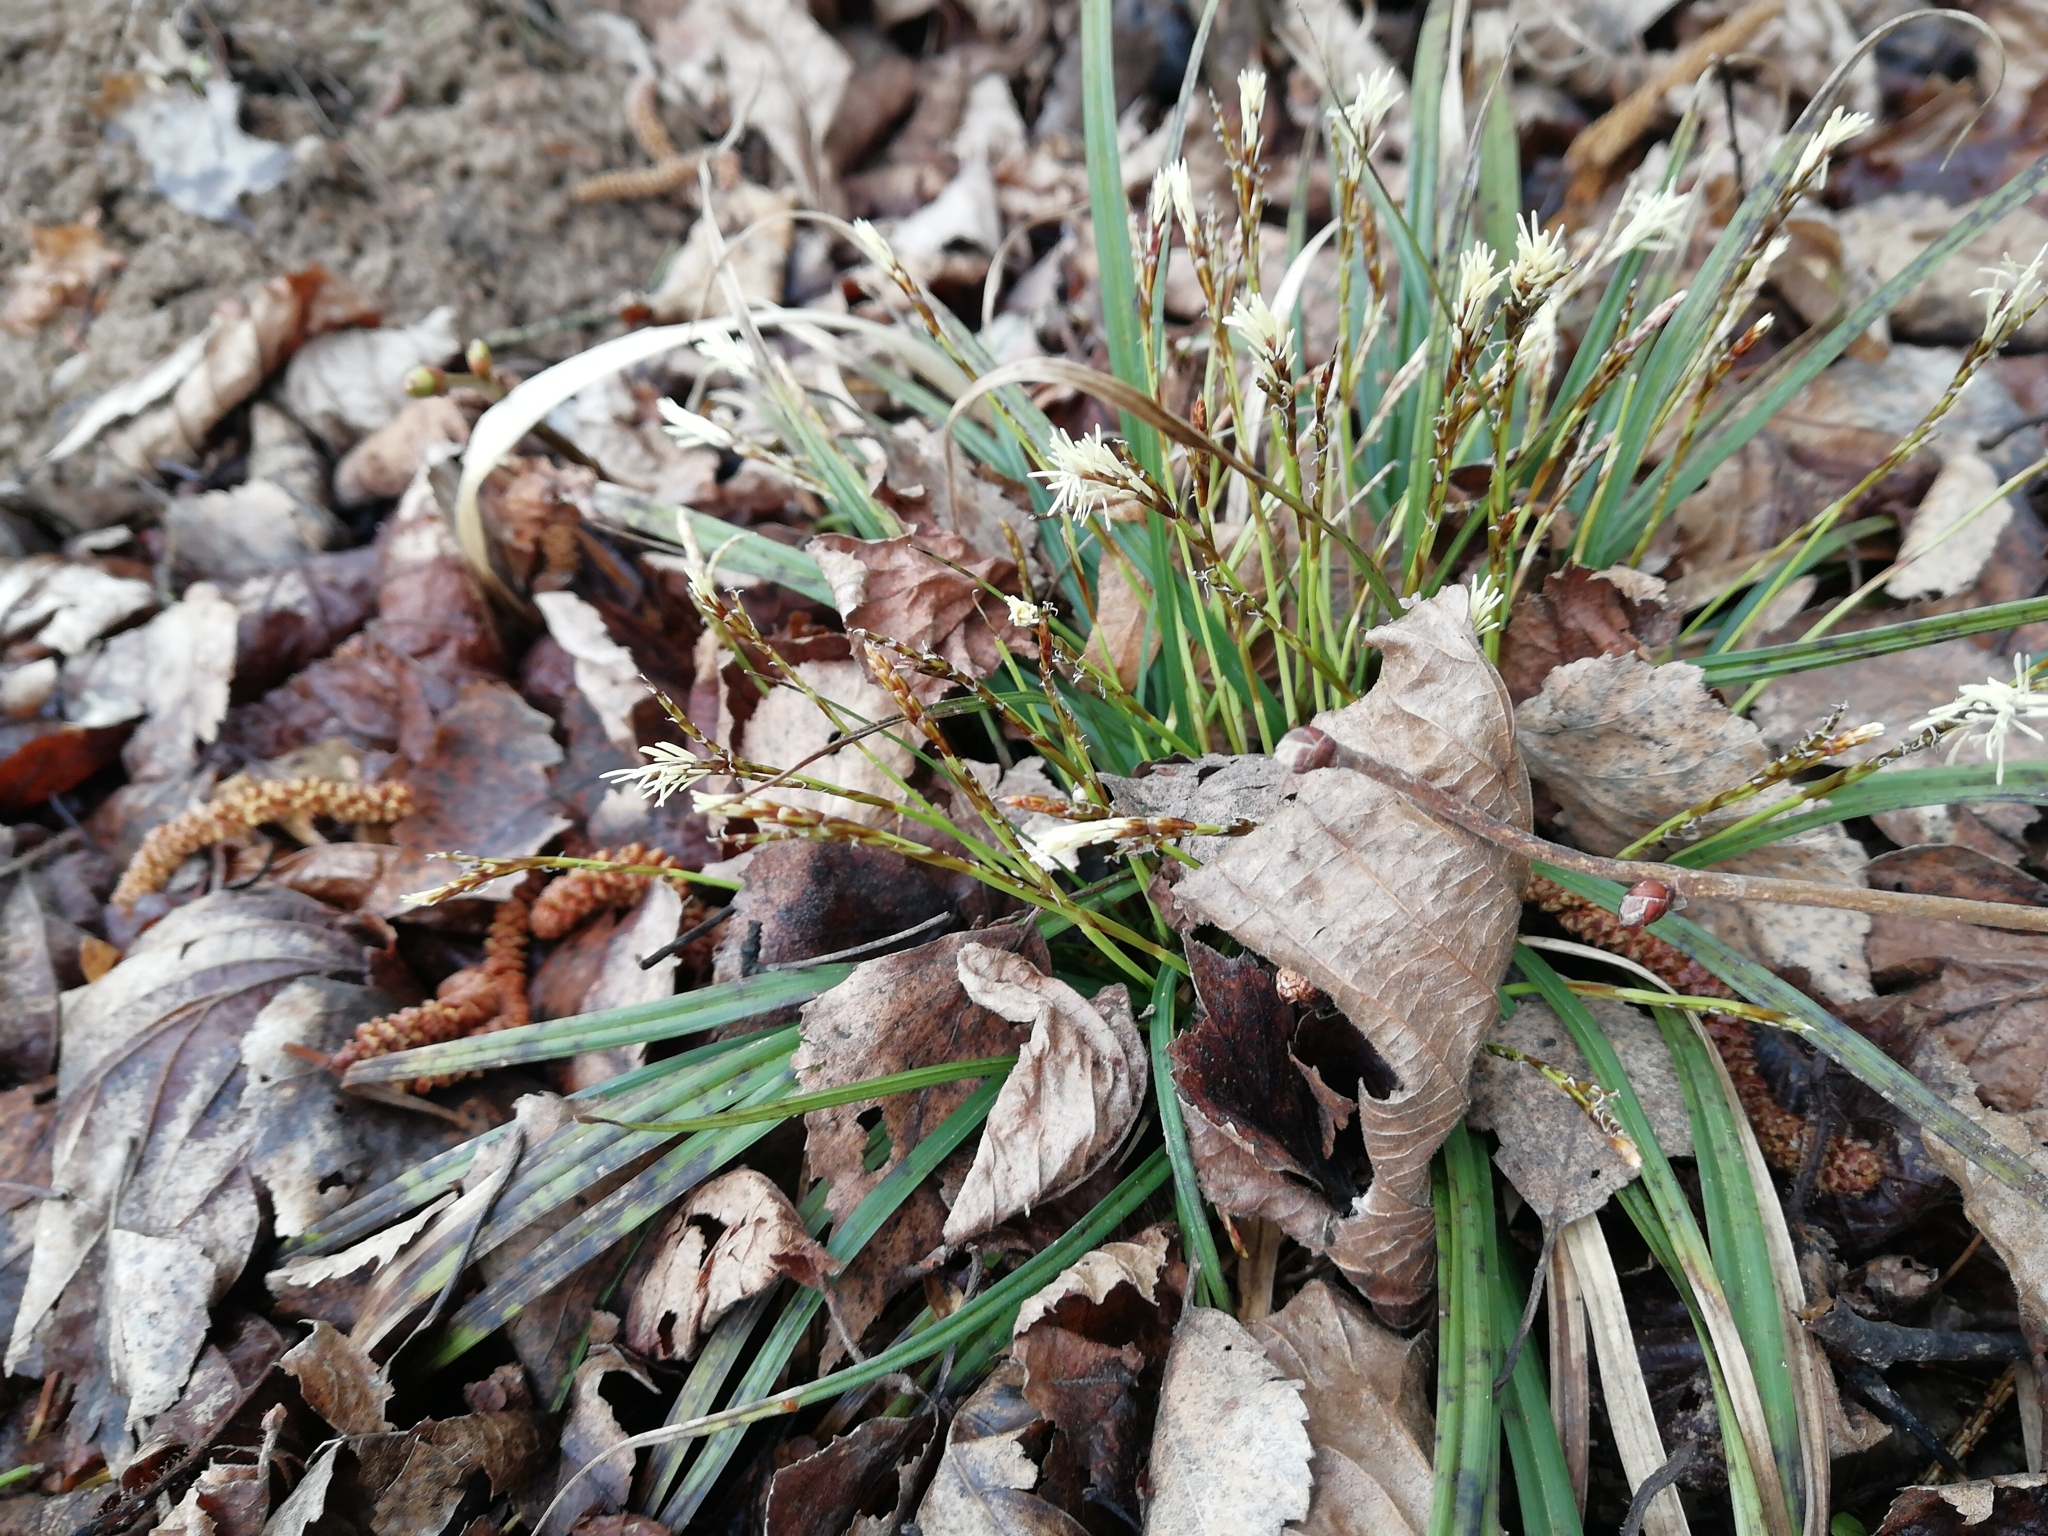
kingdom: Plantae
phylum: Tracheophyta
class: Liliopsida
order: Poales
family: Cyperaceae
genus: Carex
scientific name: Carex digitata
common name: Fingered sedge
